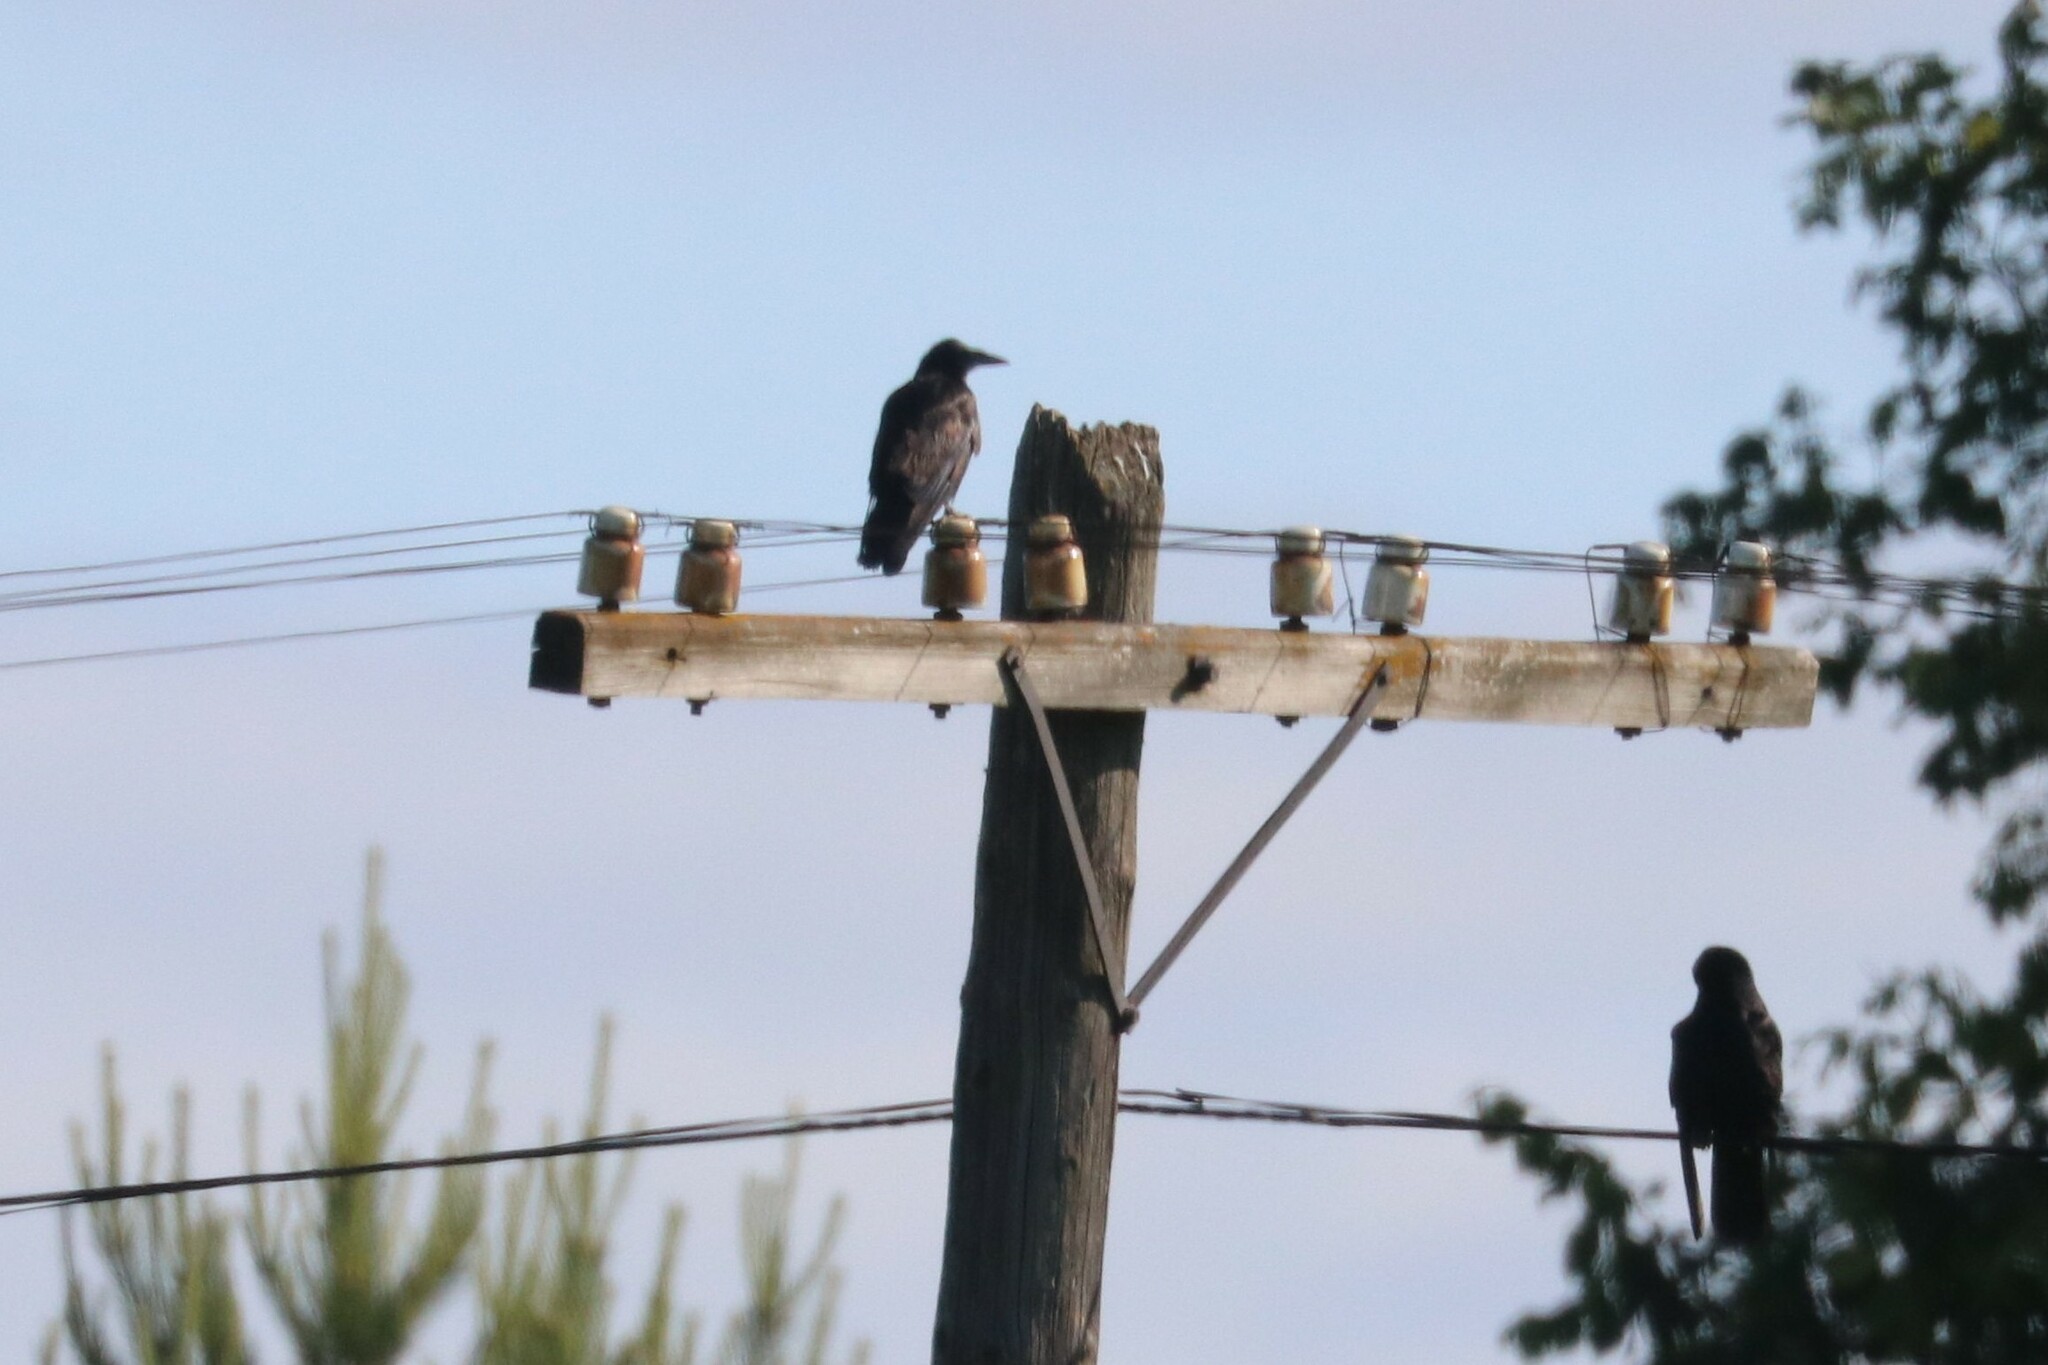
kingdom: Animalia
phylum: Chordata
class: Aves
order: Passeriformes
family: Corvidae
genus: Corvus
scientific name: Corvus frugilegus
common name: Rook
